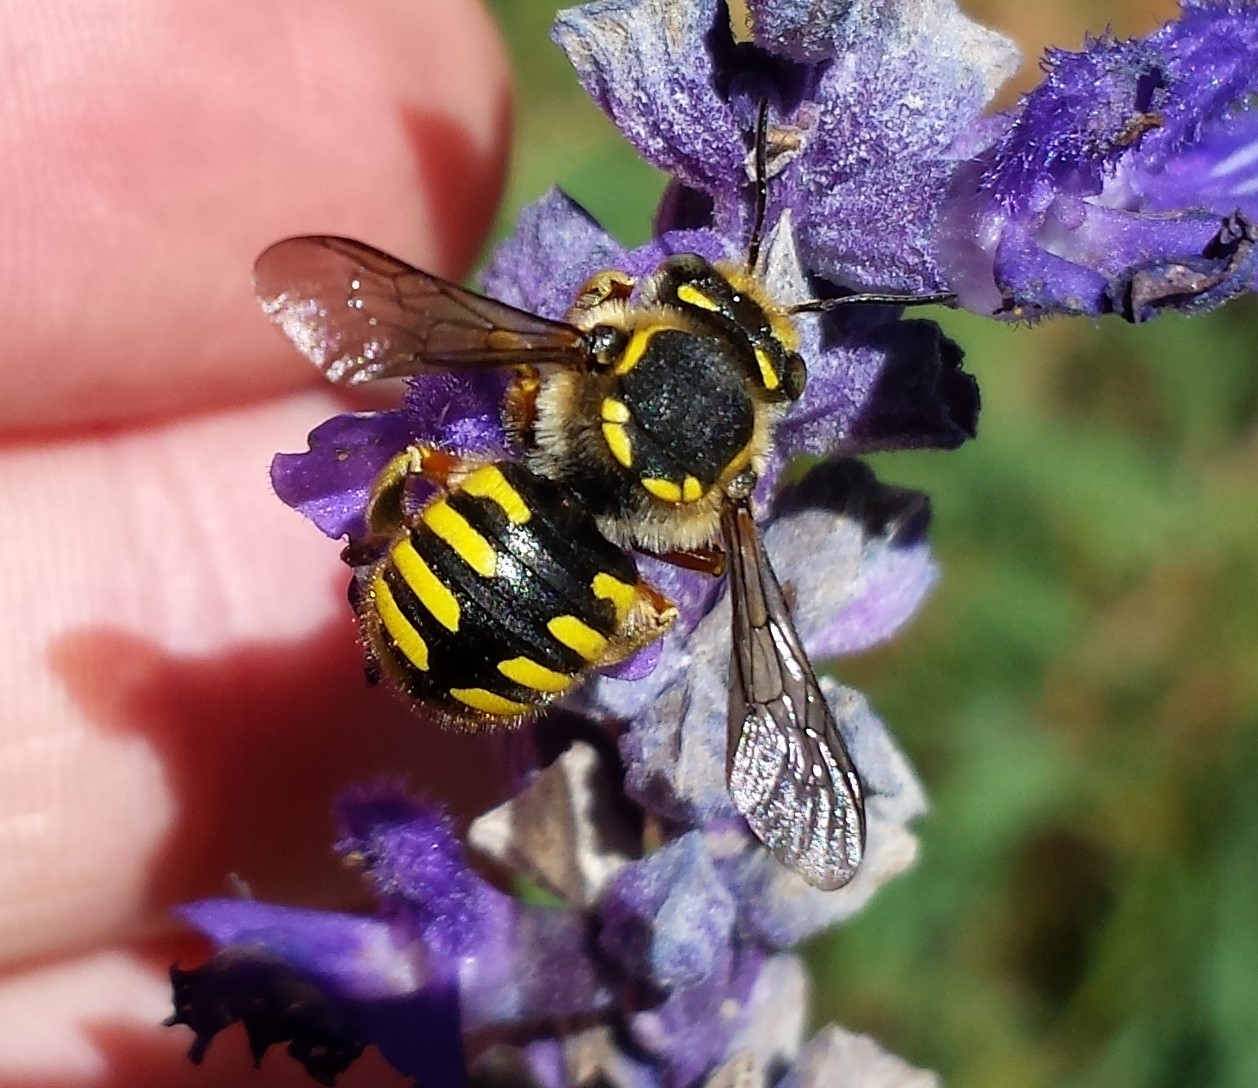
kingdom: Animalia
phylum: Arthropoda
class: Insecta
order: Hymenoptera
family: Megachilidae
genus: Anthidium
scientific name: Anthidium manicatum
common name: Wool carder bee
